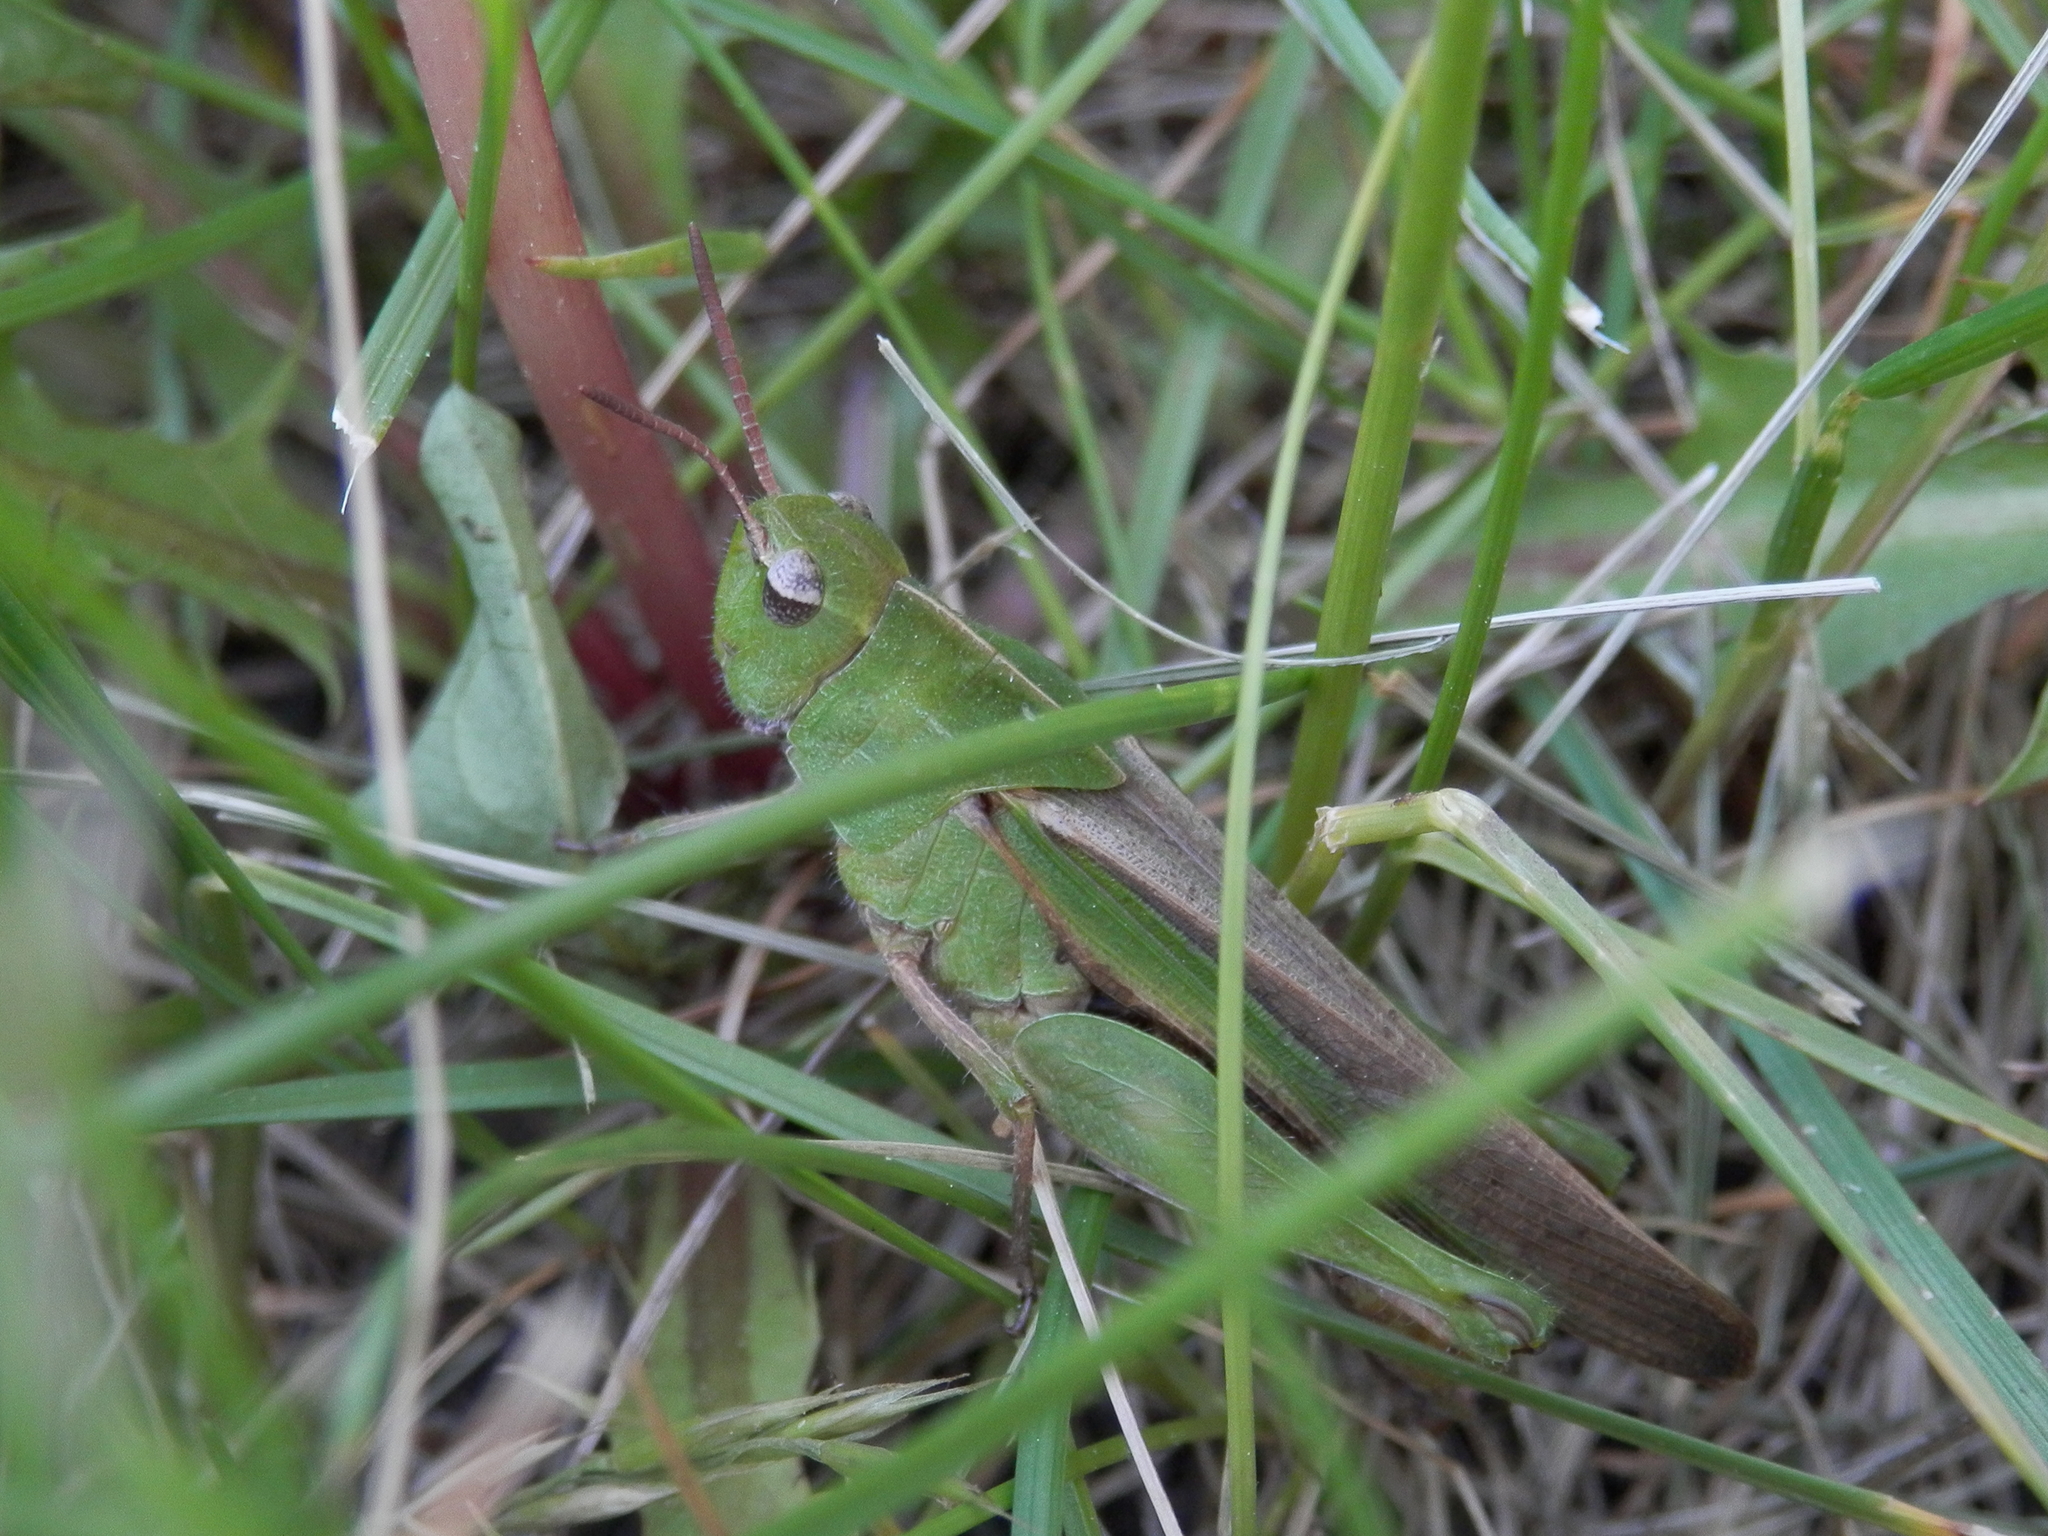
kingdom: Animalia
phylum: Arthropoda
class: Insecta
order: Orthoptera
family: Acrididae
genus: Chortophaga
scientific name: Chortophaga viridifasciata
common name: Green-striped grasshopper
